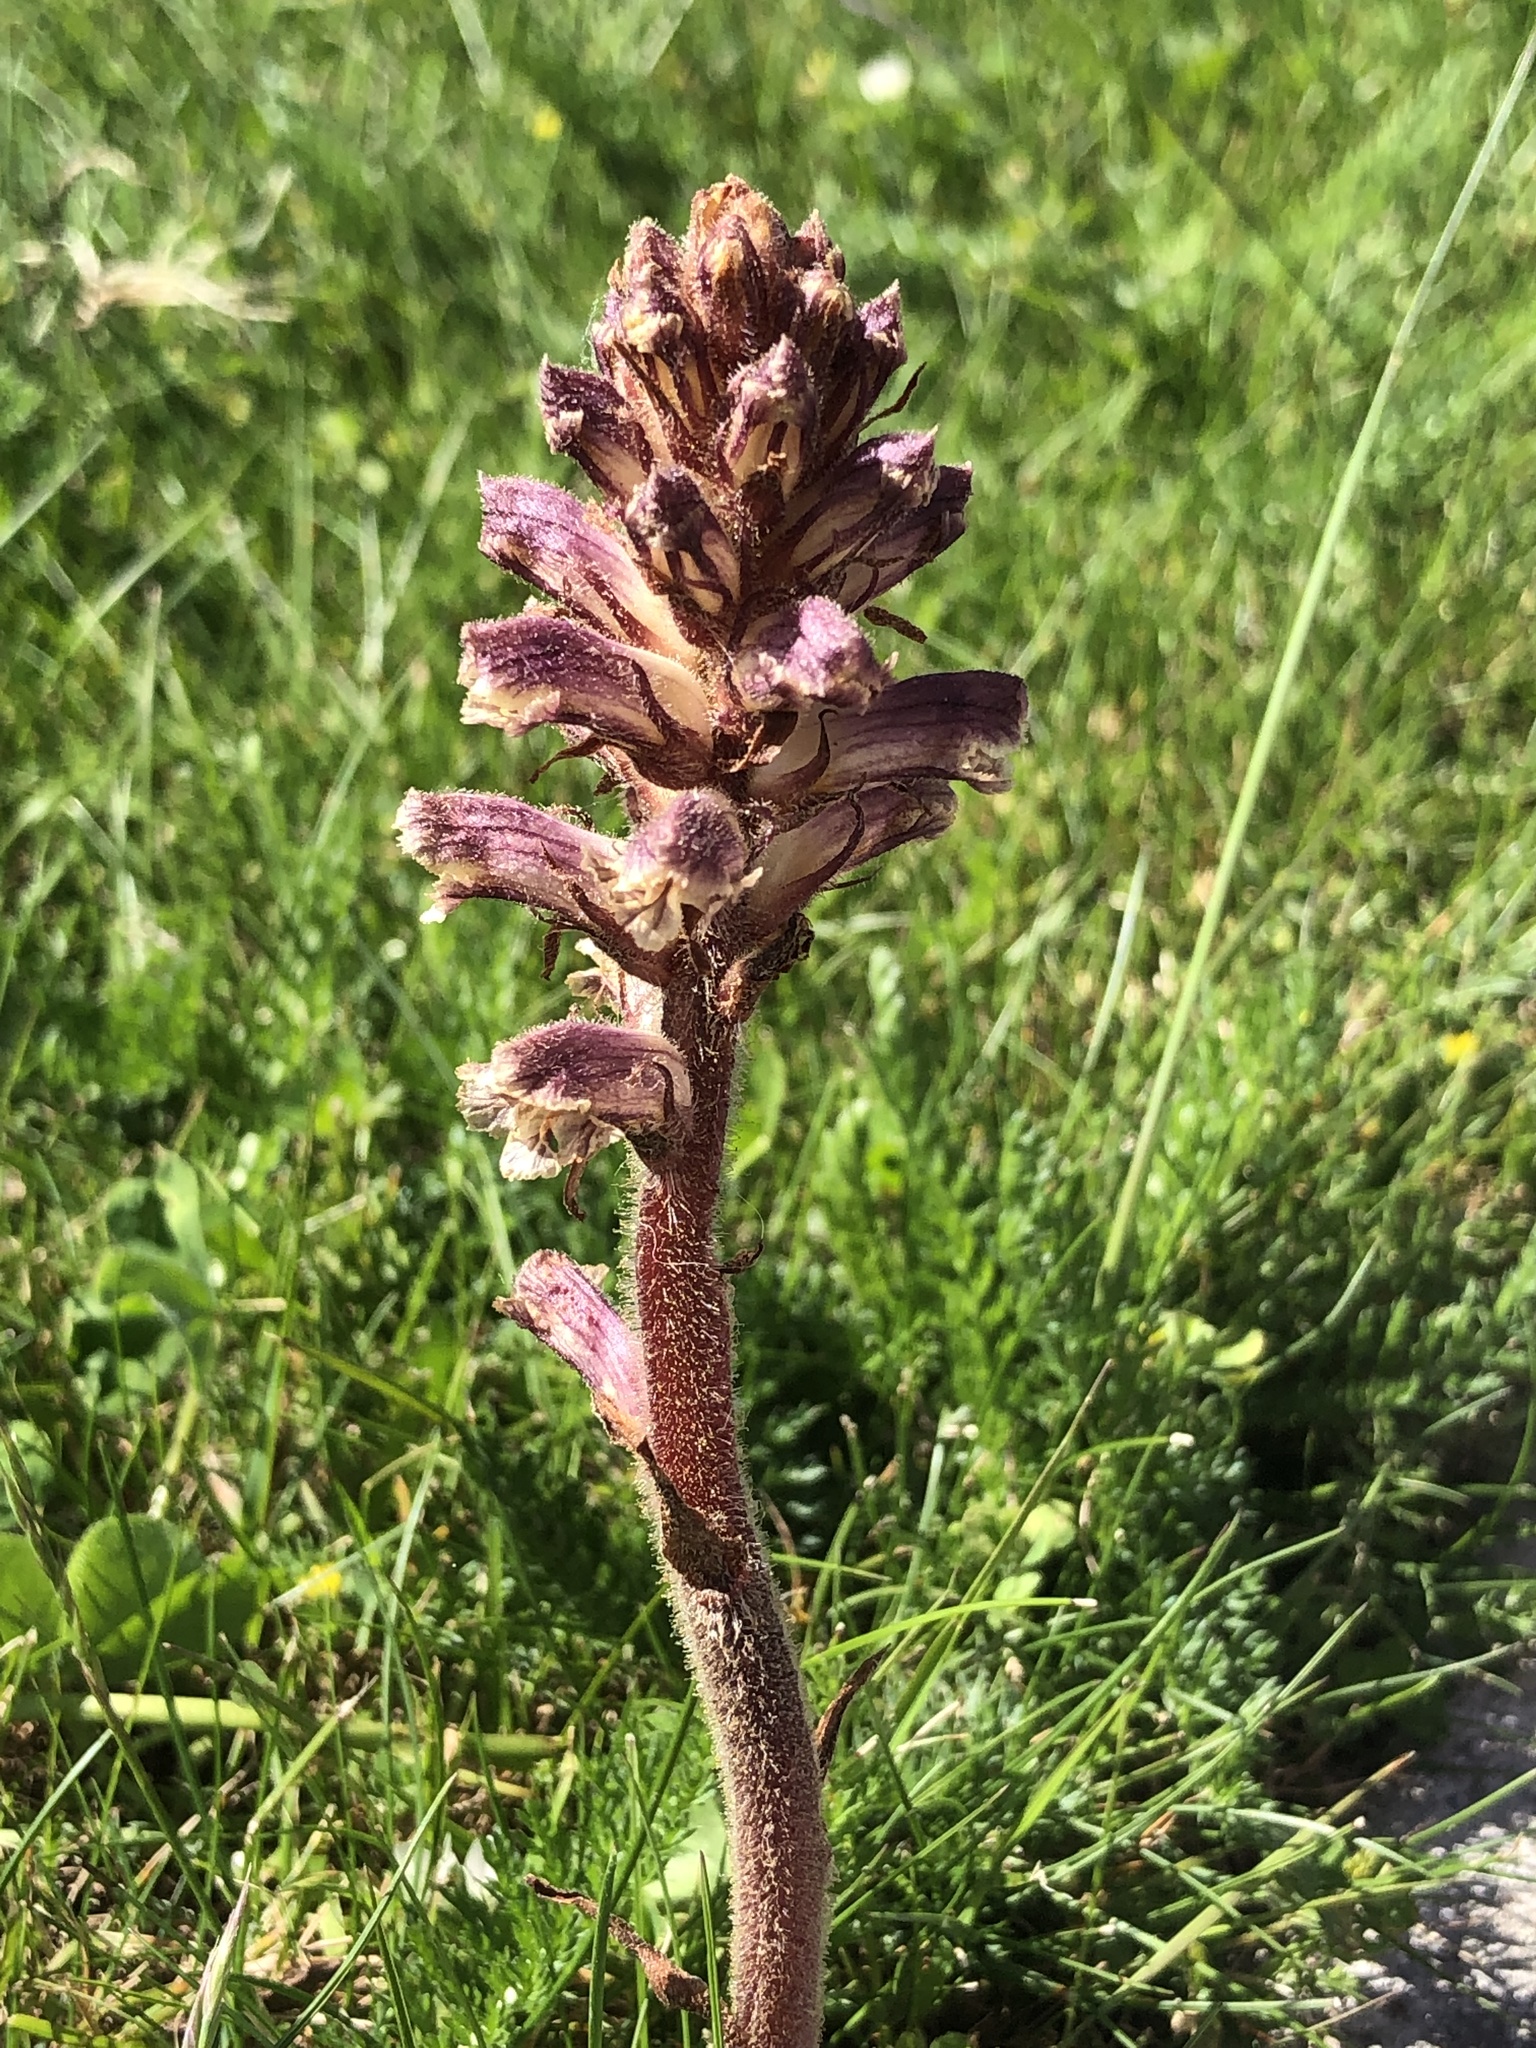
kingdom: Plantae
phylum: Tracheophyta
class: Magnoliopsida
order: Lamiales
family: Orobanchaceae
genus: Orobanche
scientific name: Orobanche minor
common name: Common broomrape
